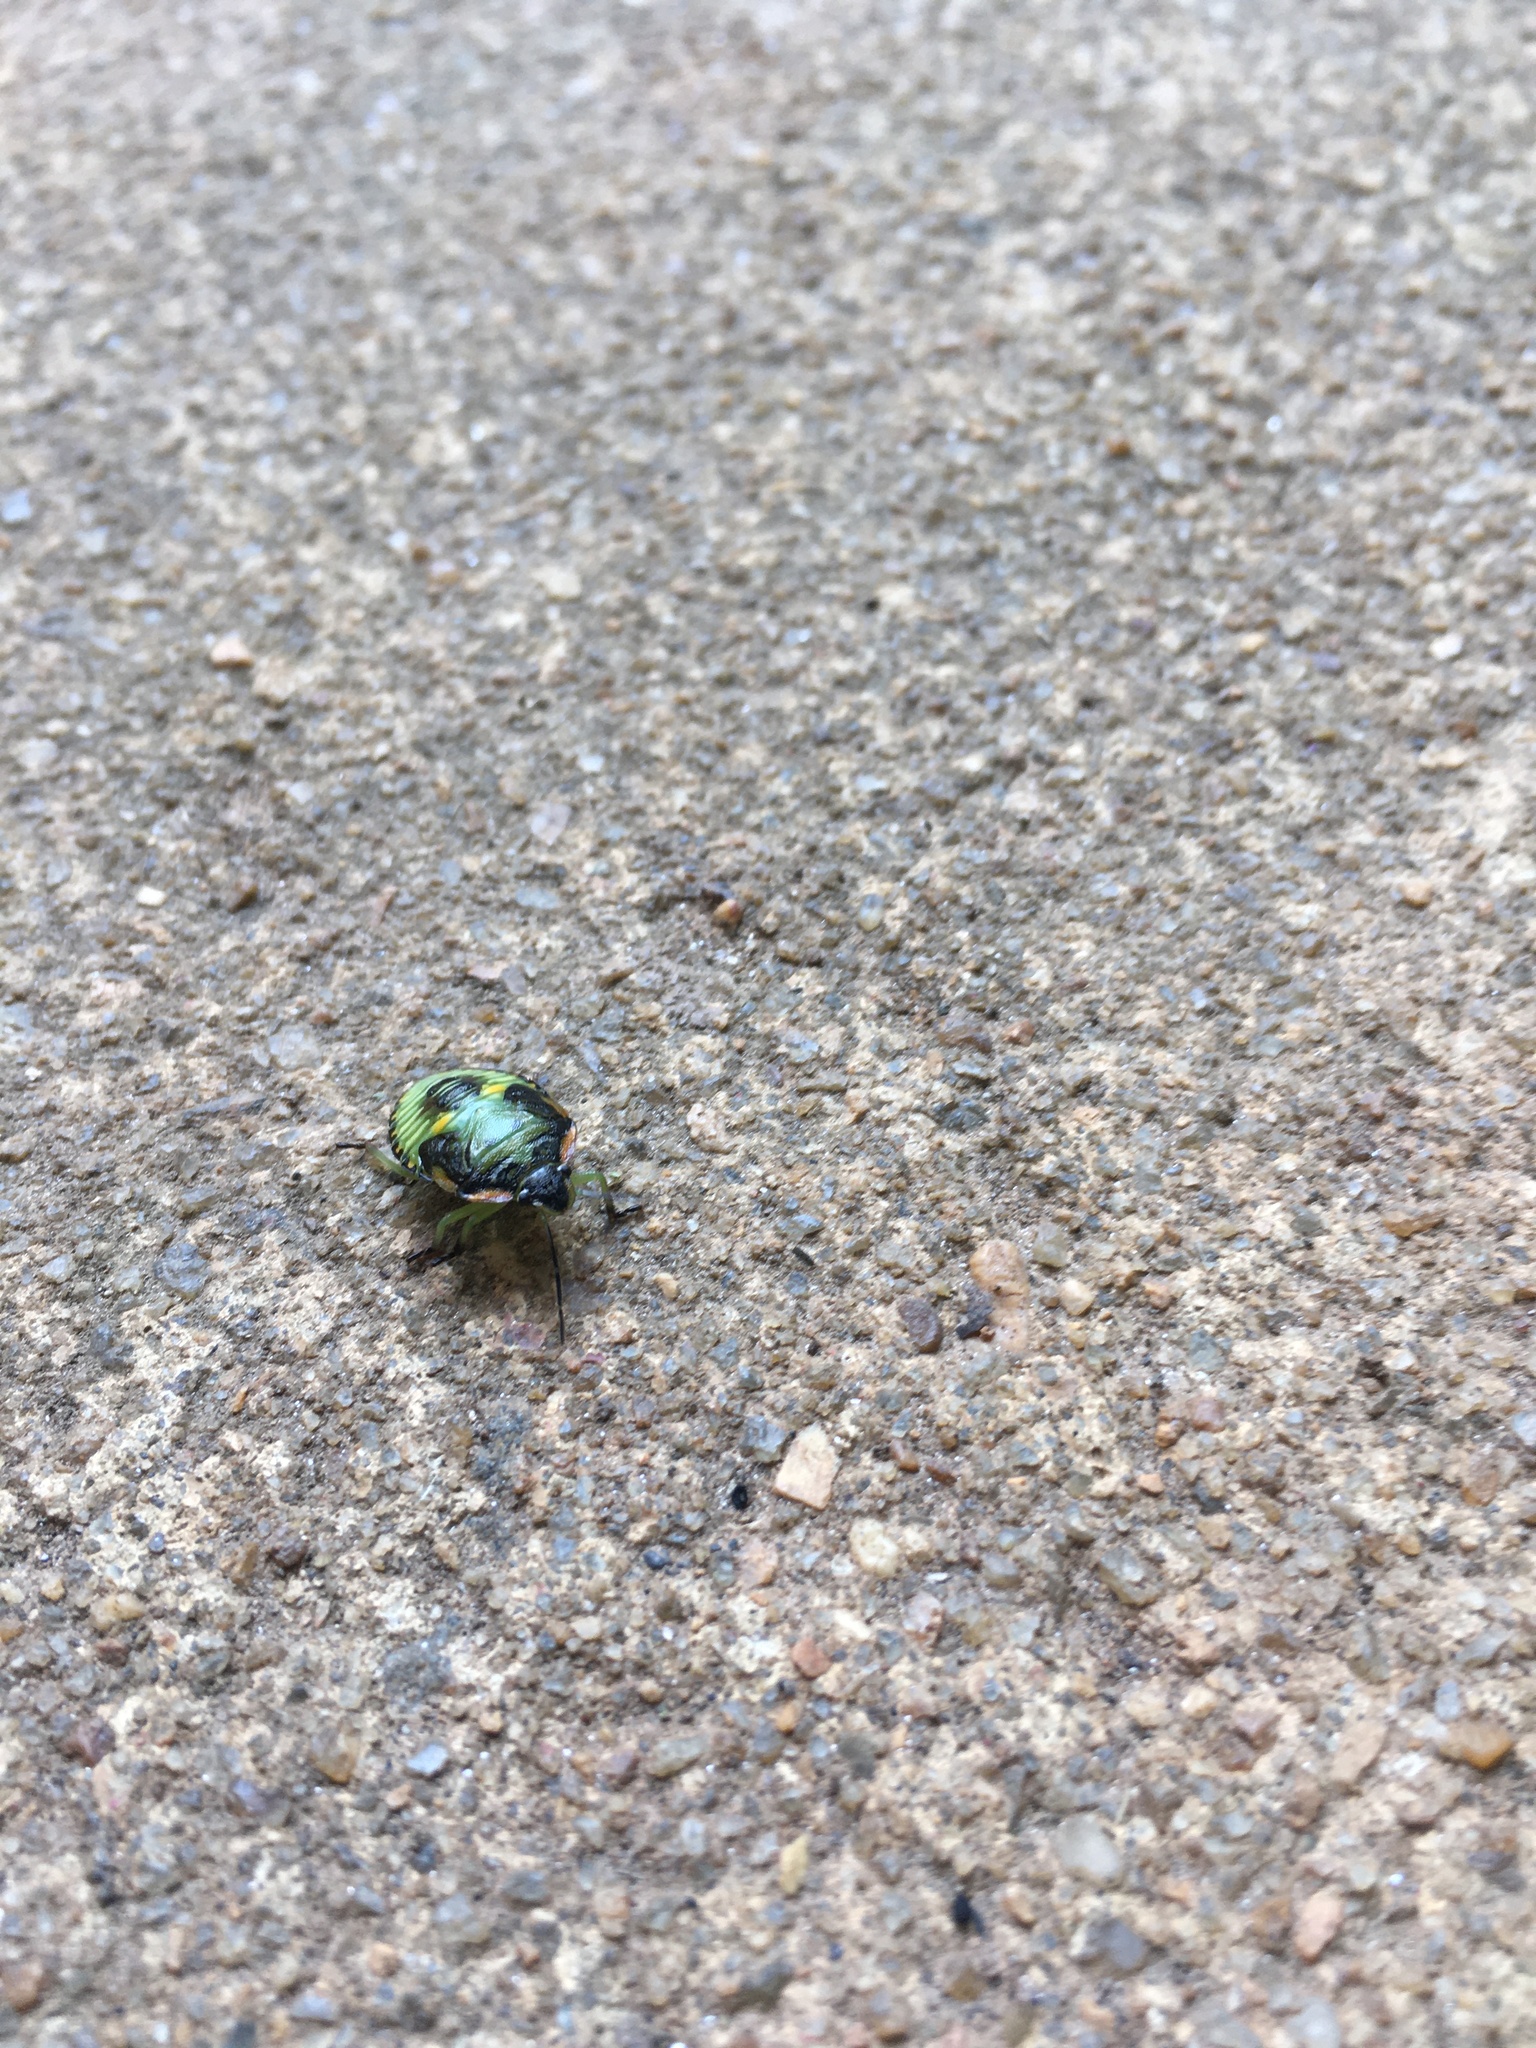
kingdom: Animalia
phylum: Arthropoda
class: Insecta
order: Hemiptera
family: Pentatomidae
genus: Chinavia
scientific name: Chinavia hilaris
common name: Green stink bug
